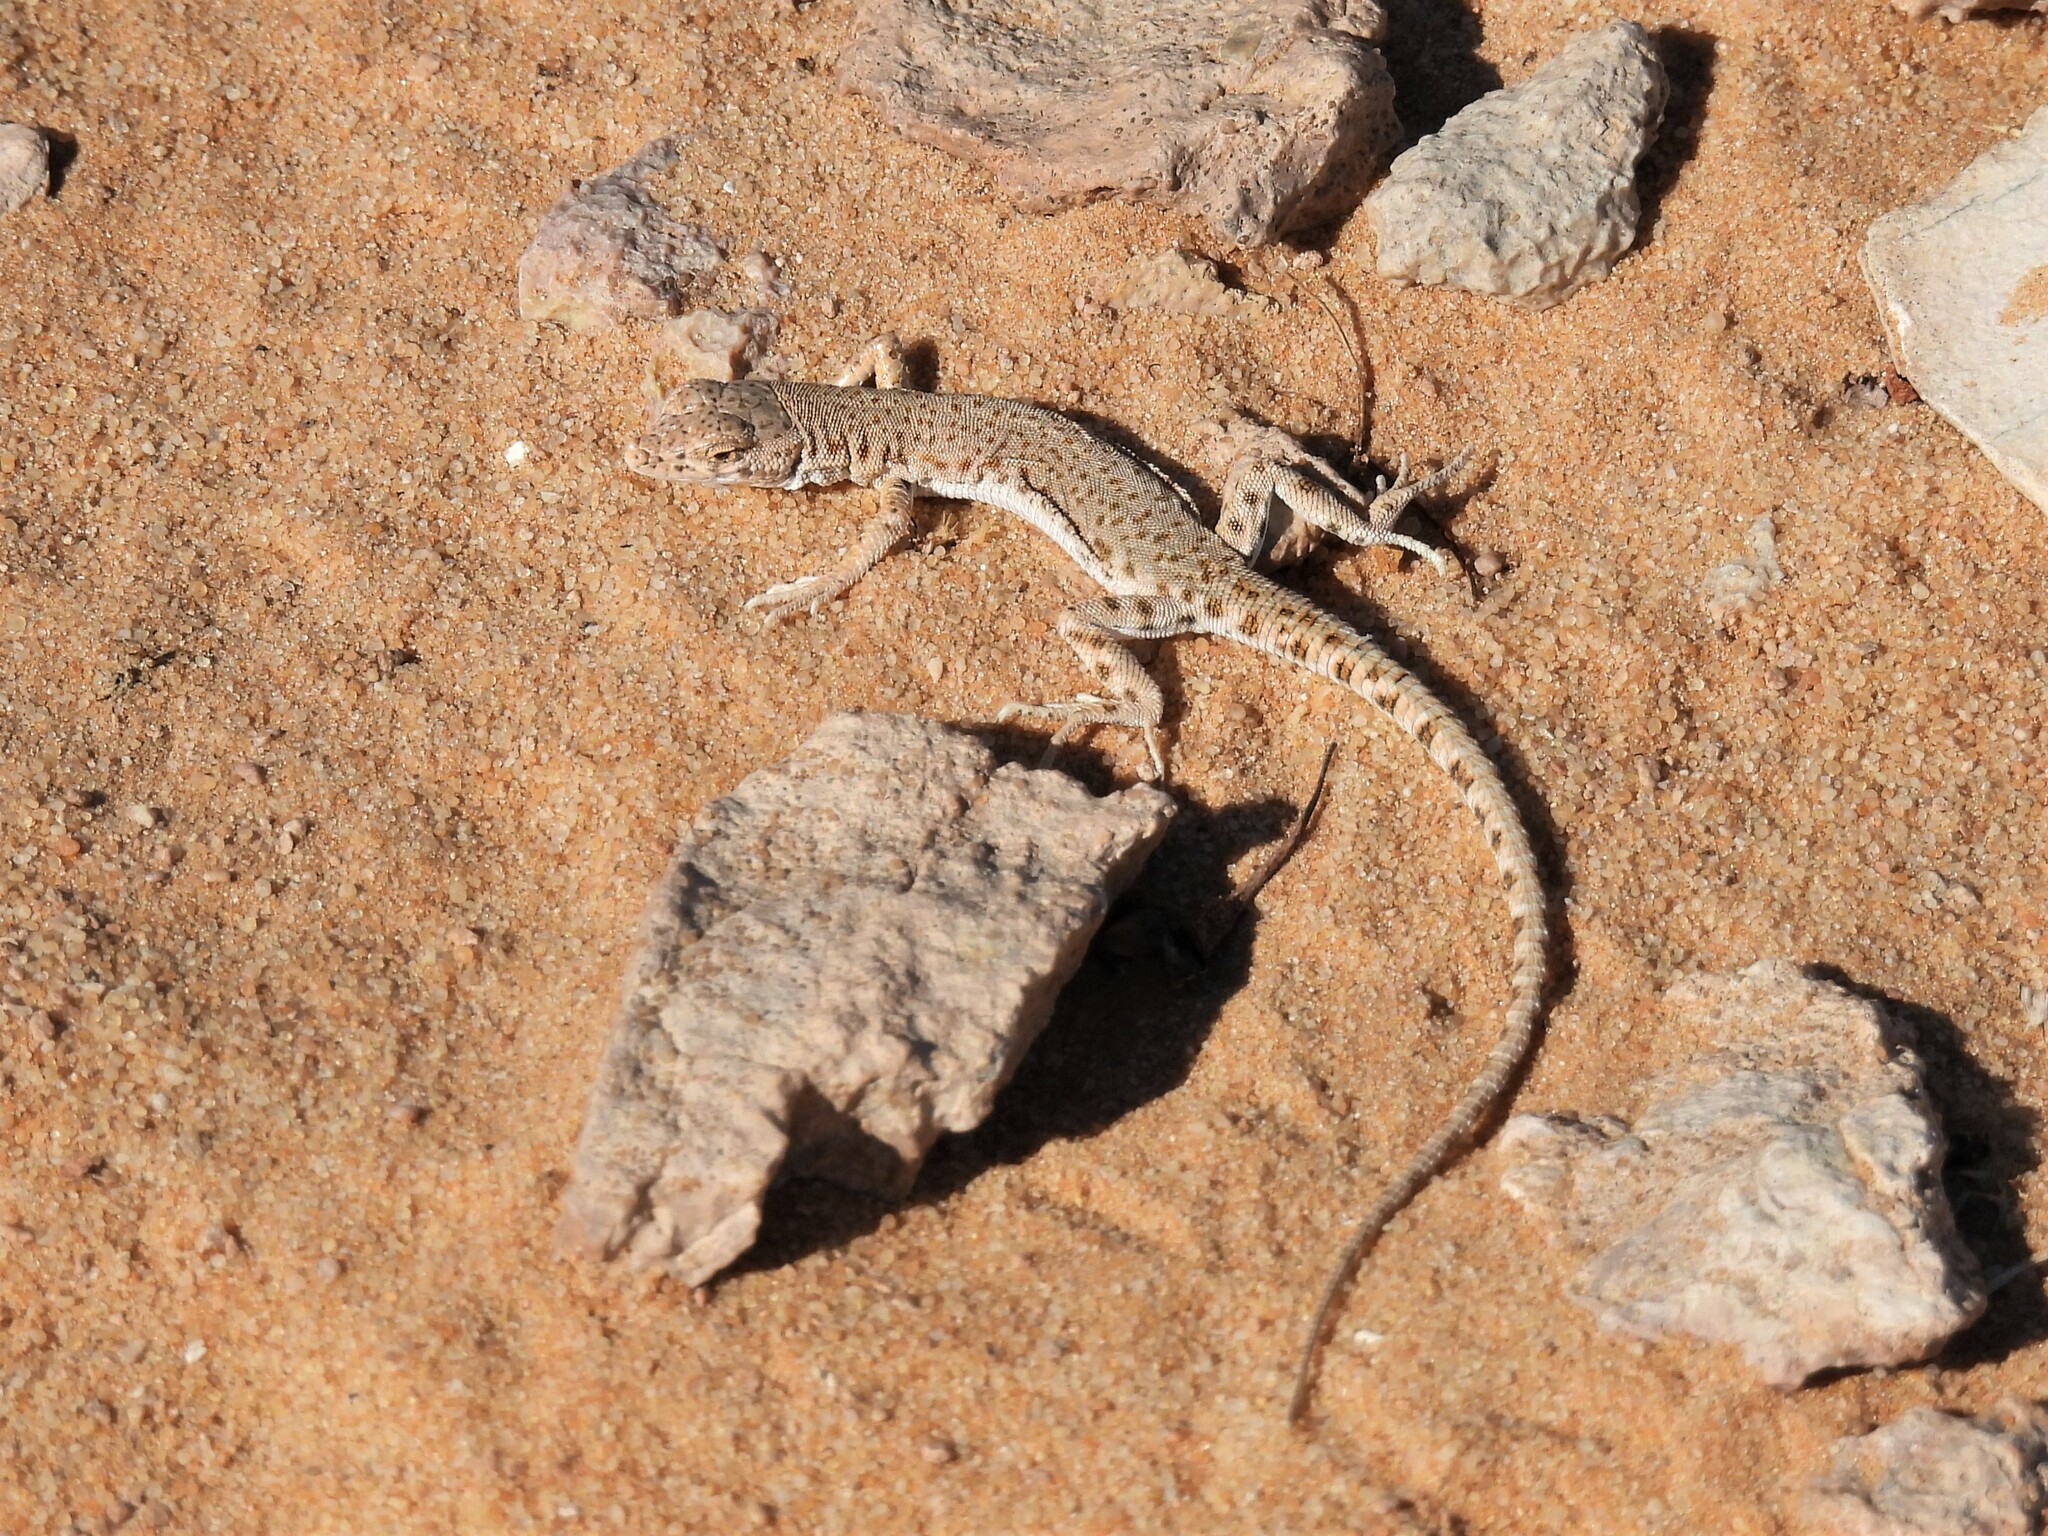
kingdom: Animalia
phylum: Chordata
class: Squamata
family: Lacertidae
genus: Mesalina
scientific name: Mesalina brevirostris
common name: Blanford's short-nosed desert lizard
